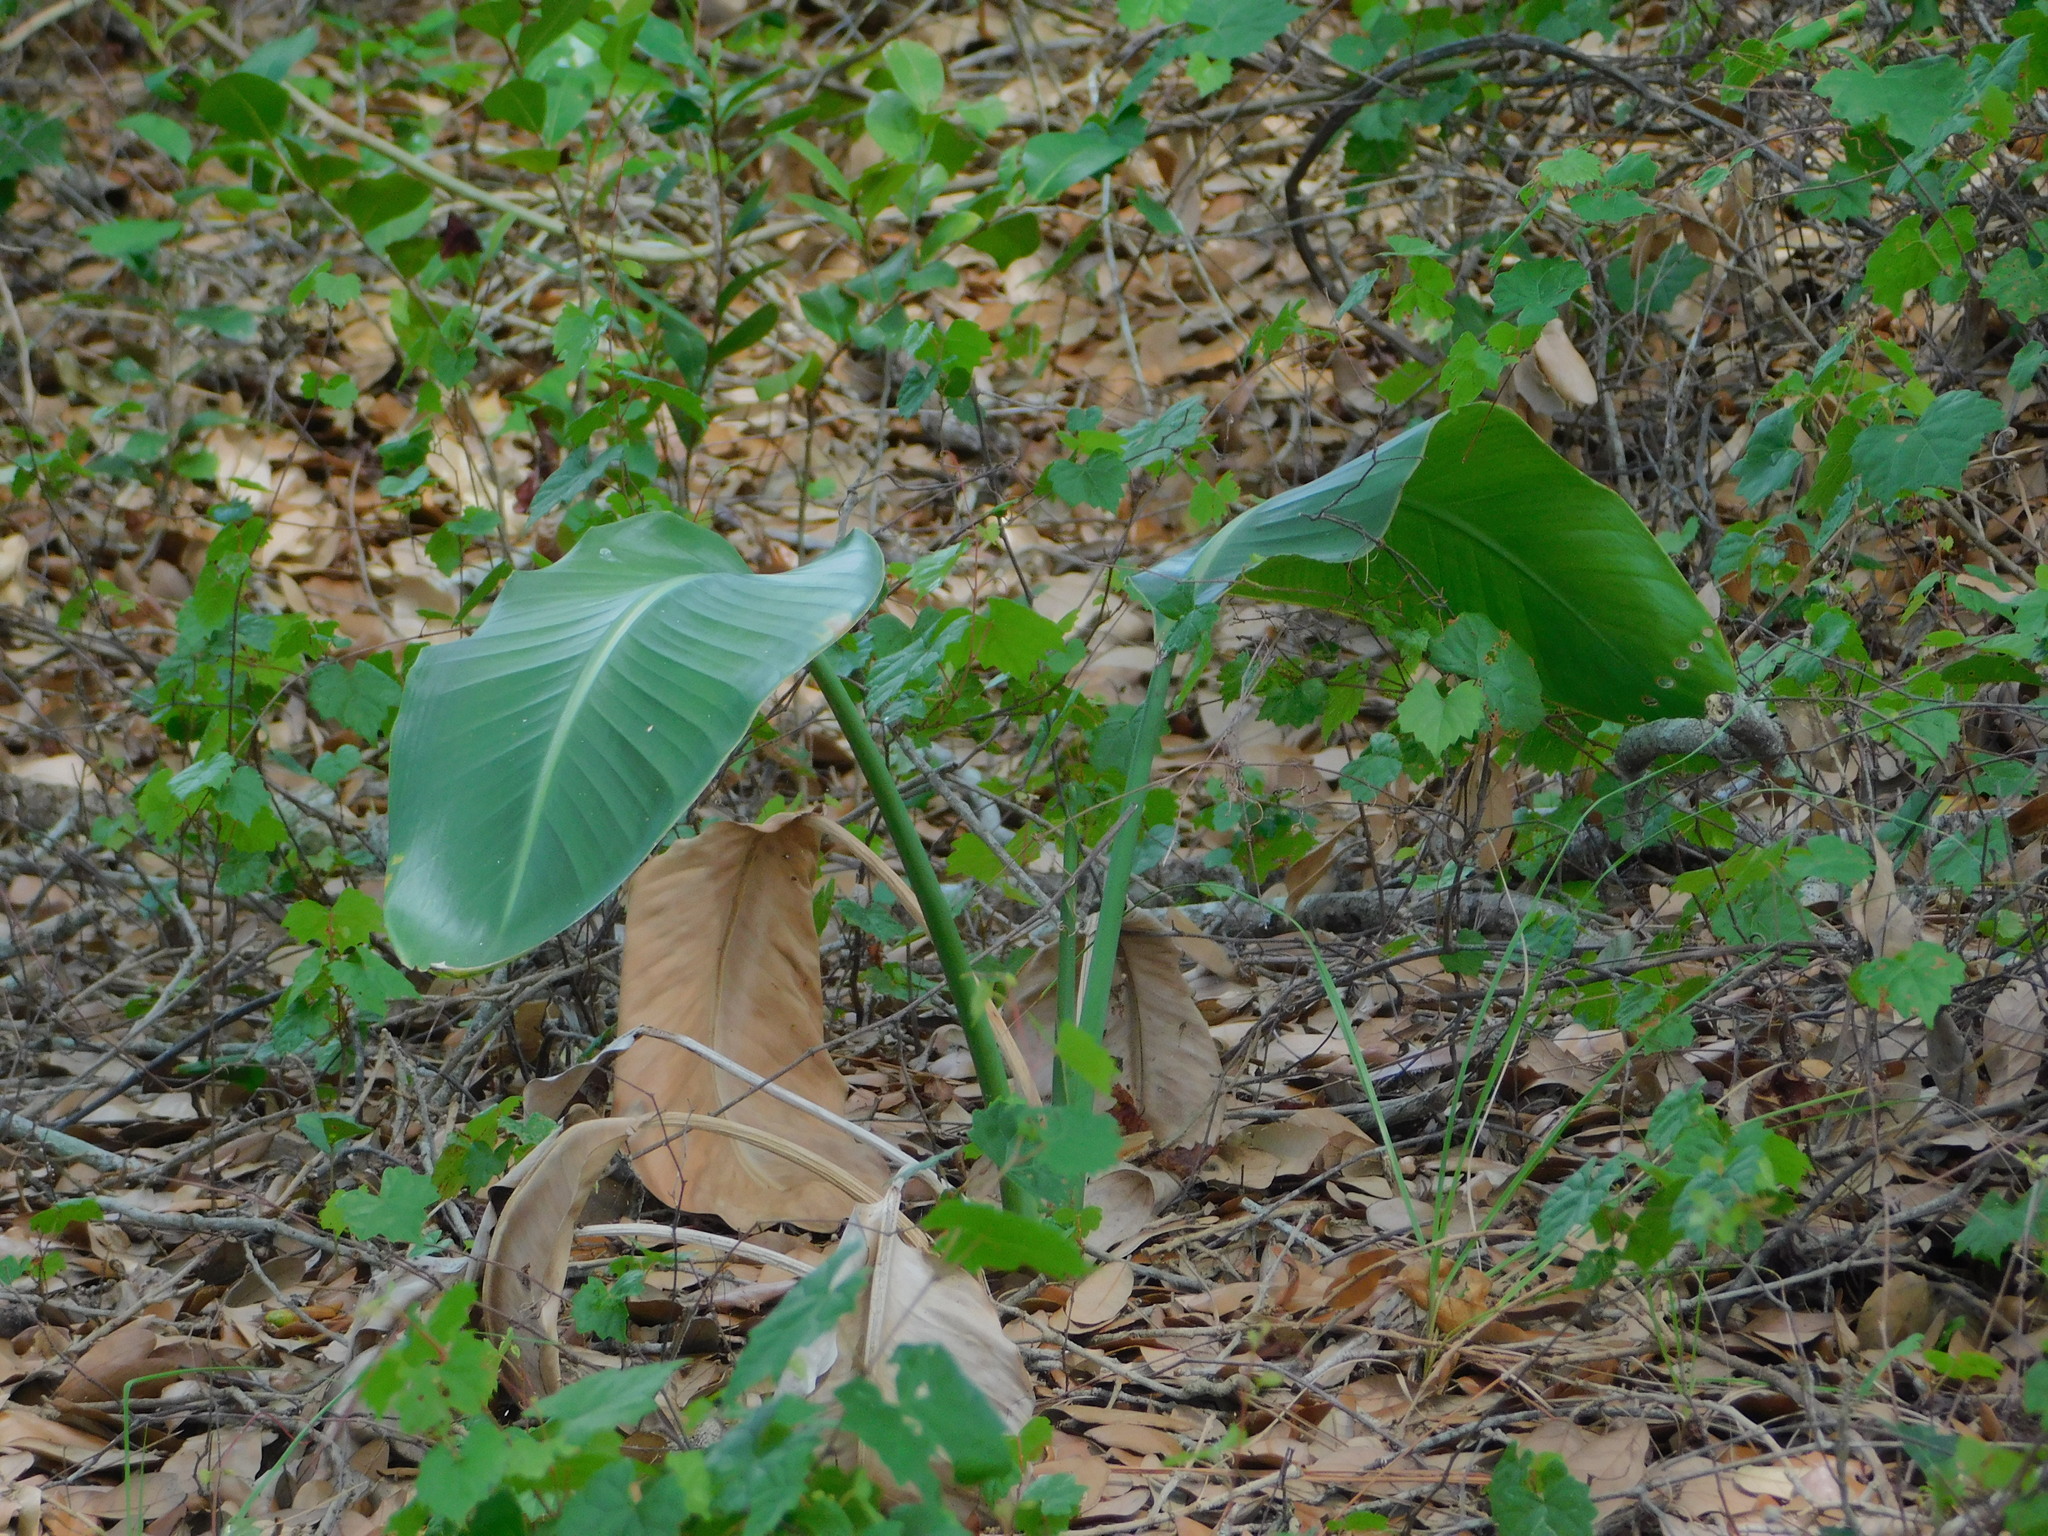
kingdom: Plantae
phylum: Tracheophyta
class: Liliopsida
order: Zingiberales
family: Strelitziaceae
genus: Strelitzia
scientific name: Strelitzia nicolai
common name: Bird-of-paradise tree
